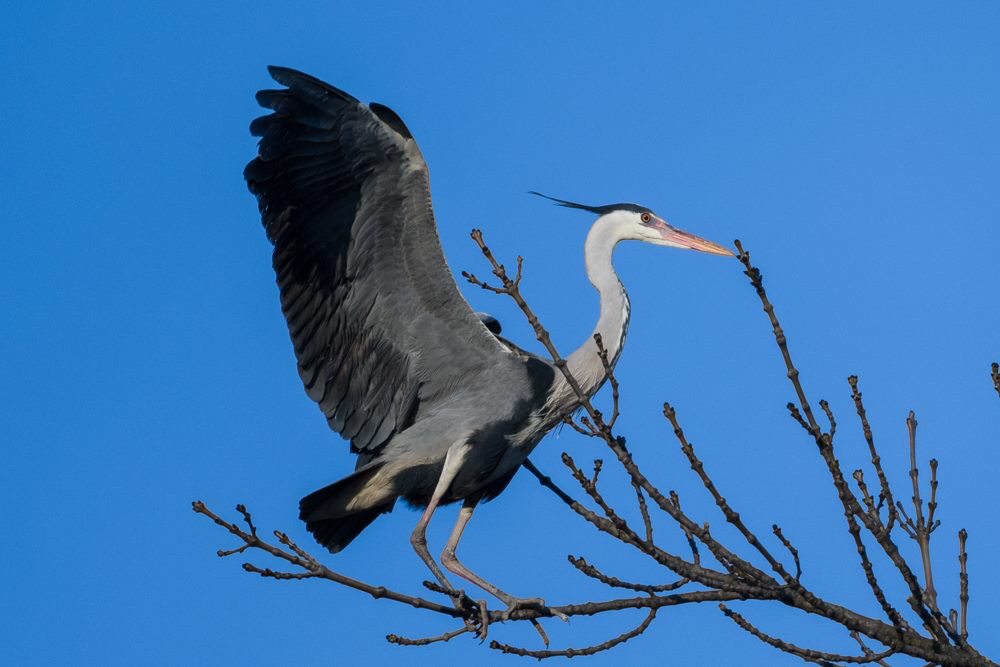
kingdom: Animalia
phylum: Chordata
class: Aves
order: Pelecaniformes
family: Ardeidae
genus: Ardea
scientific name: Ardea cinerea
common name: Grey heron
